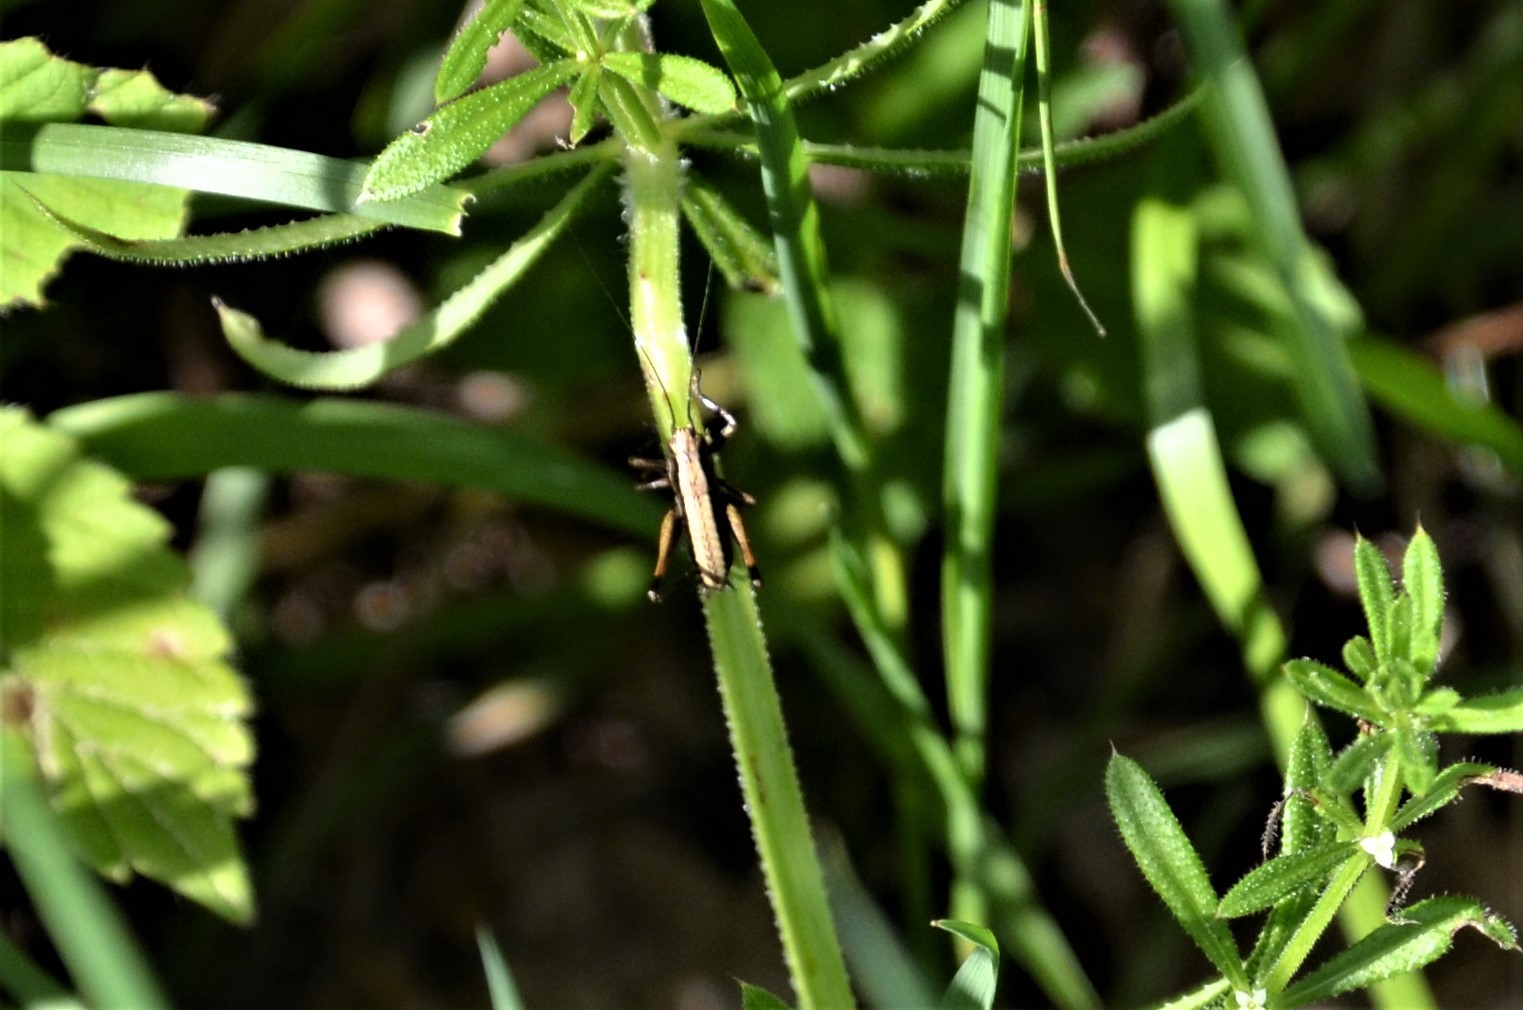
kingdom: Animalia
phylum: Arthropoda
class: Insecta
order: Orthoptera
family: Tettigoniidae
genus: Pholidoptera
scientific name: Pholidoptera griseoaptera
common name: Dark bush-cricket
